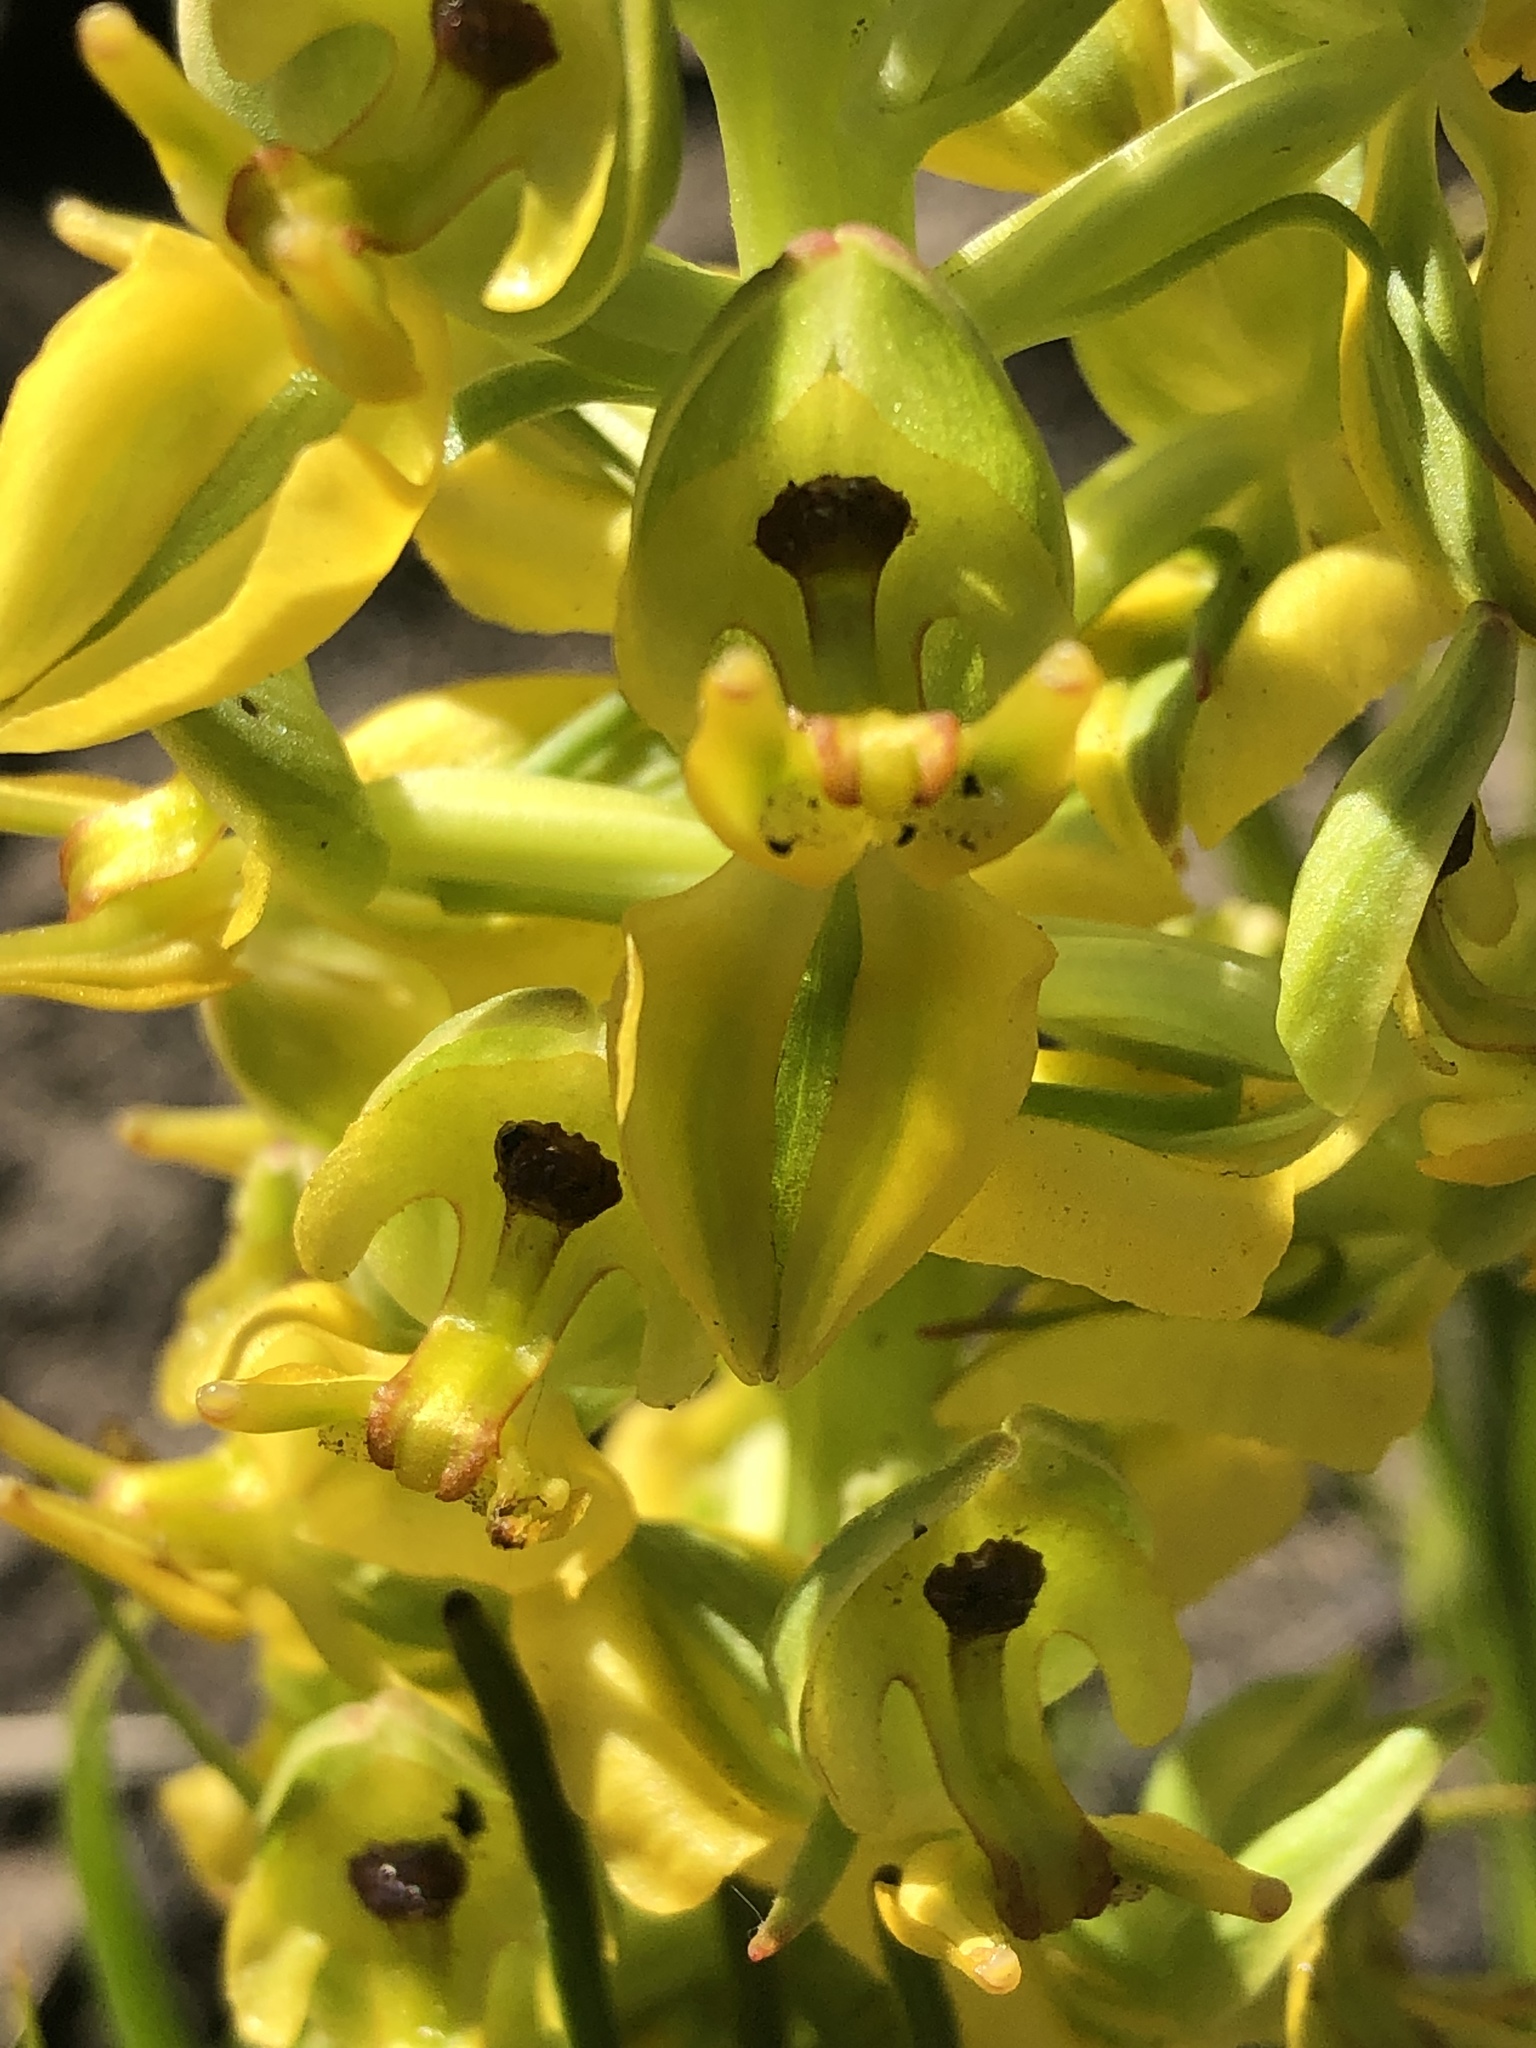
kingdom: Plantae
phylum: Tracheophyta
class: Liliopsida
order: Asparagales
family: Orchidaceae
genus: Ceratandra
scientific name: Ceratandra atrata
